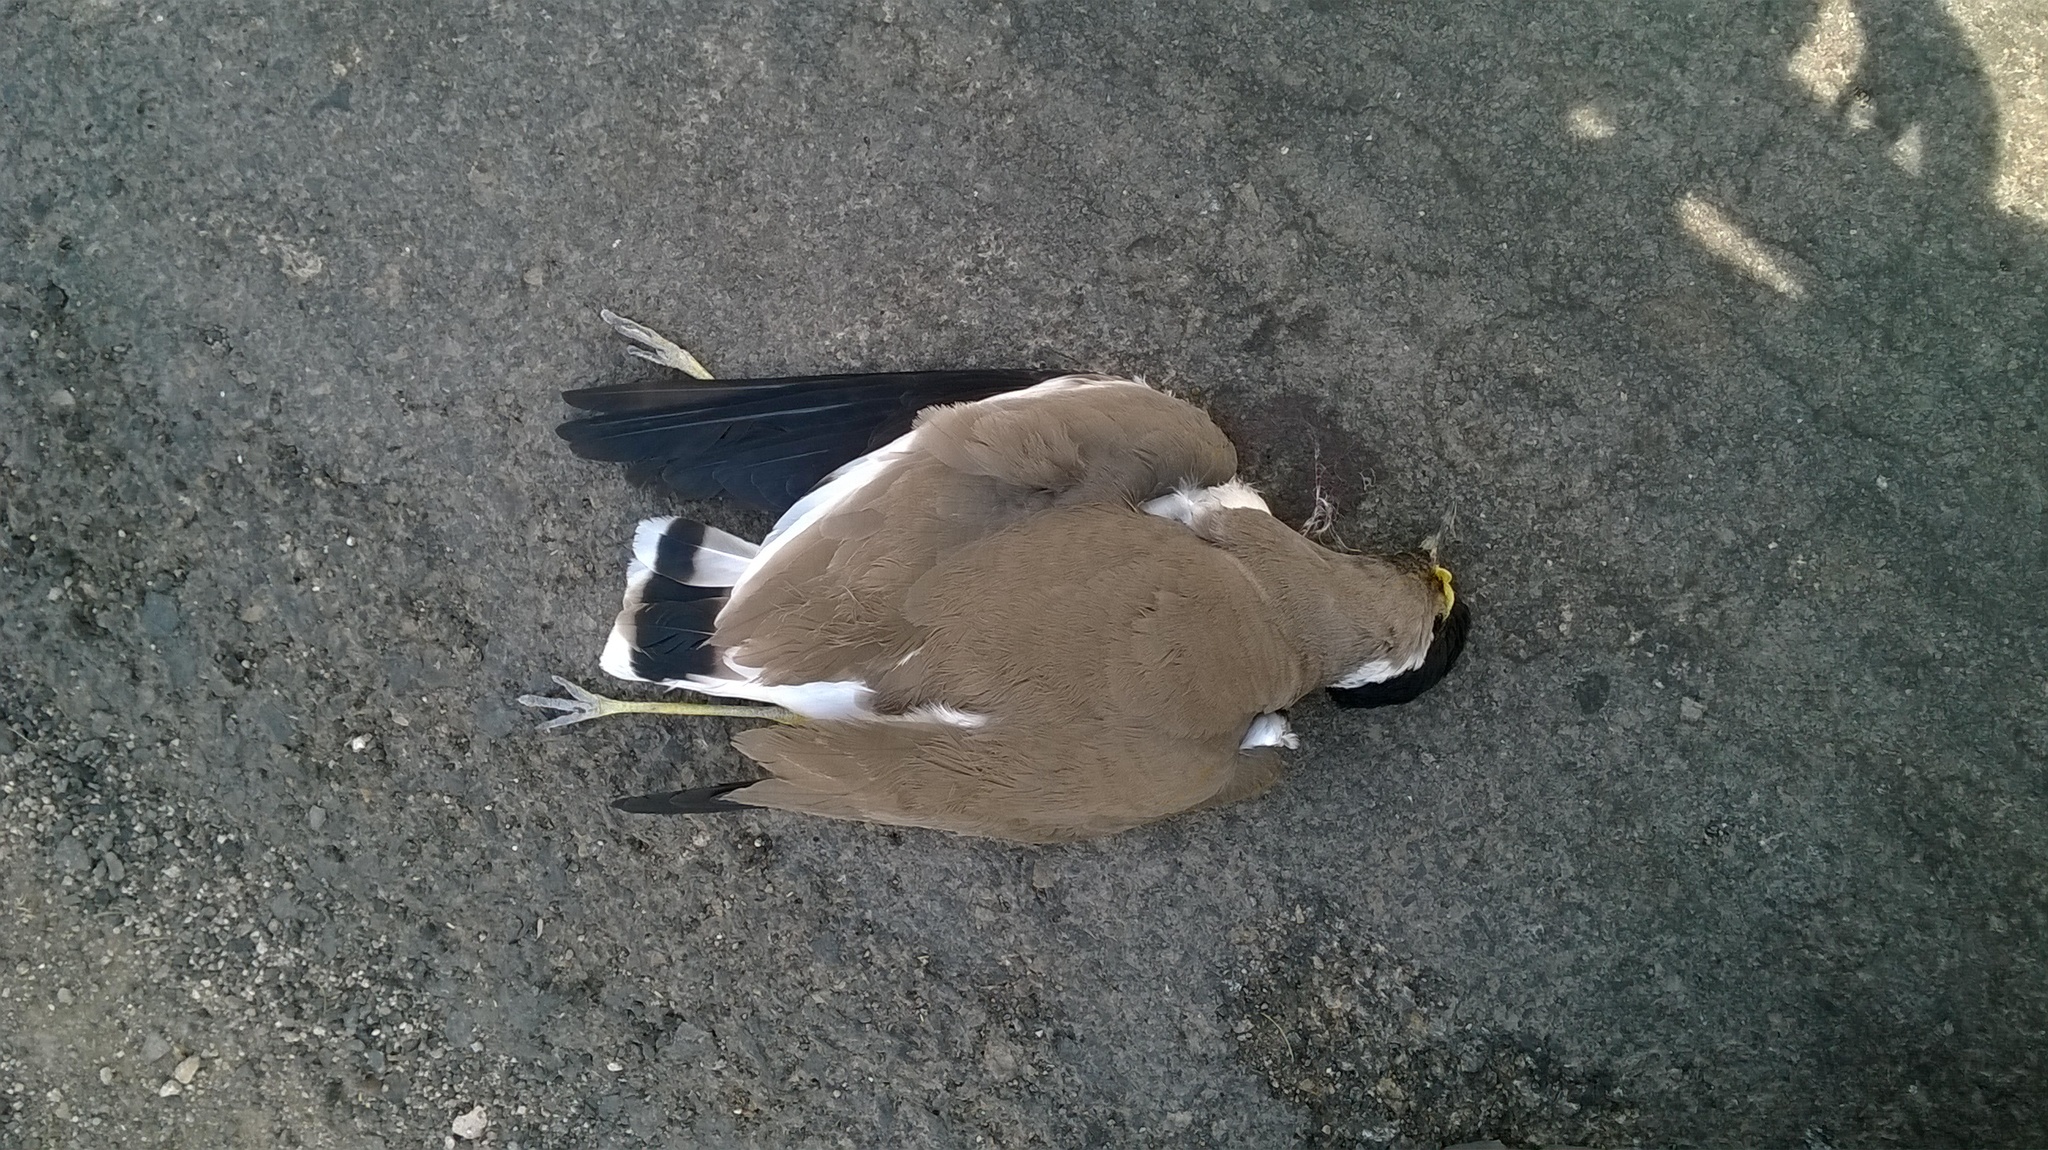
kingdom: Animalia
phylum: Chordata
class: Aves
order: Charadriiformes
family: Charadriidae
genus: Vanellus
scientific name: Vanellus malabaricus
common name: Yellow-wattled lapwing
